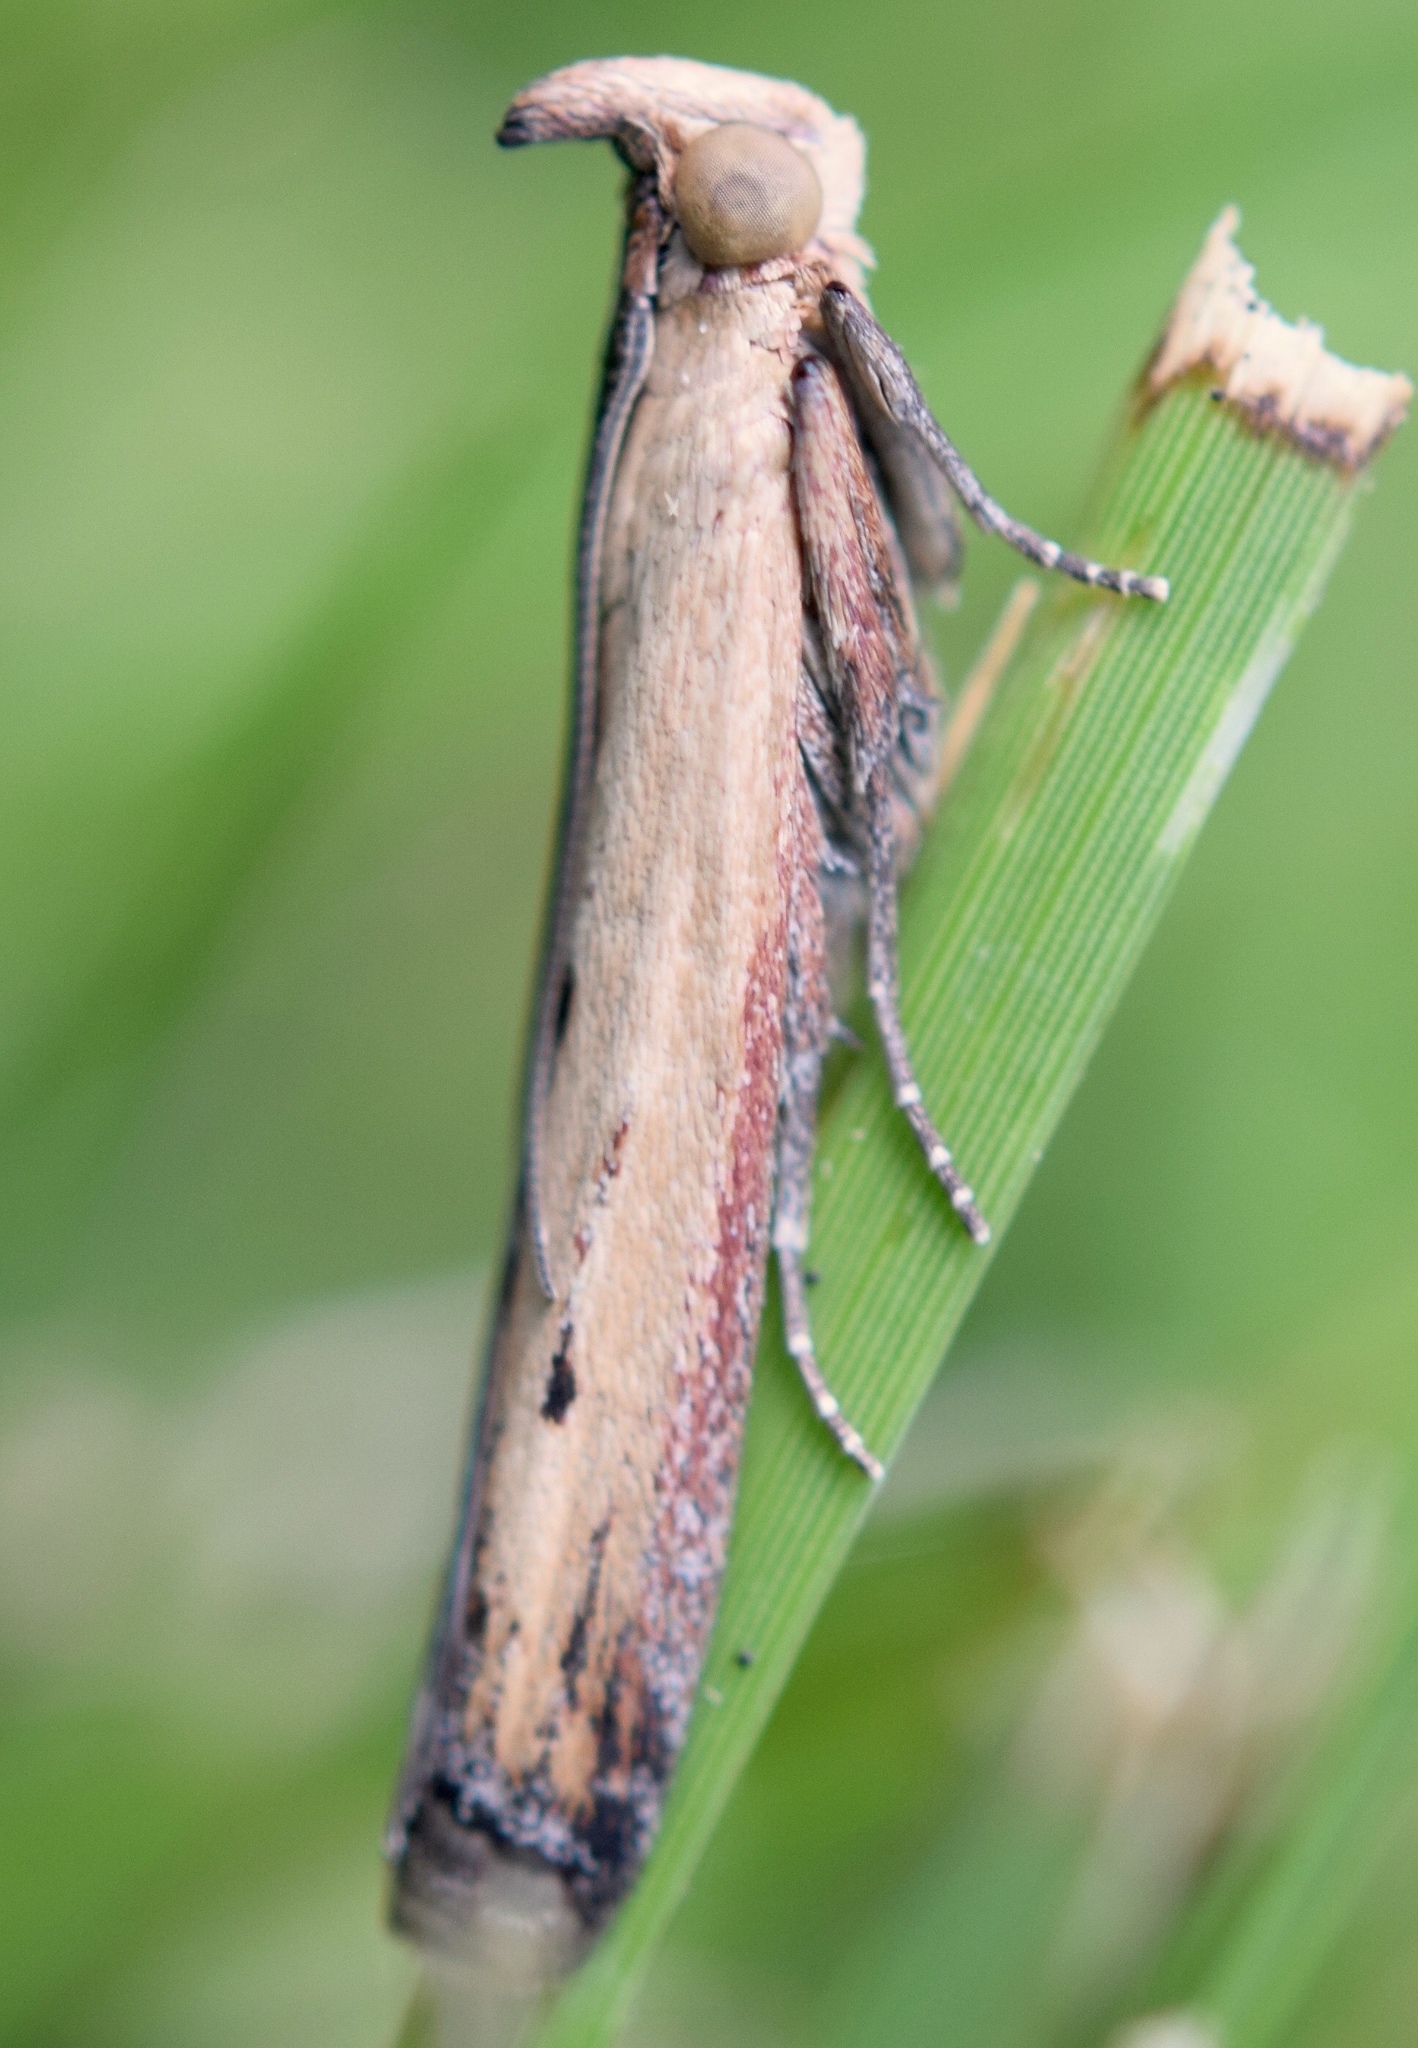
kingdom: Animalia
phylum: Arthropoda
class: Insecta
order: Lepidoptera
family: Pyralidae
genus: Elasmopalpus
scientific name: Elasmopalpus lignosella
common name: Lesser cornstalk borer
